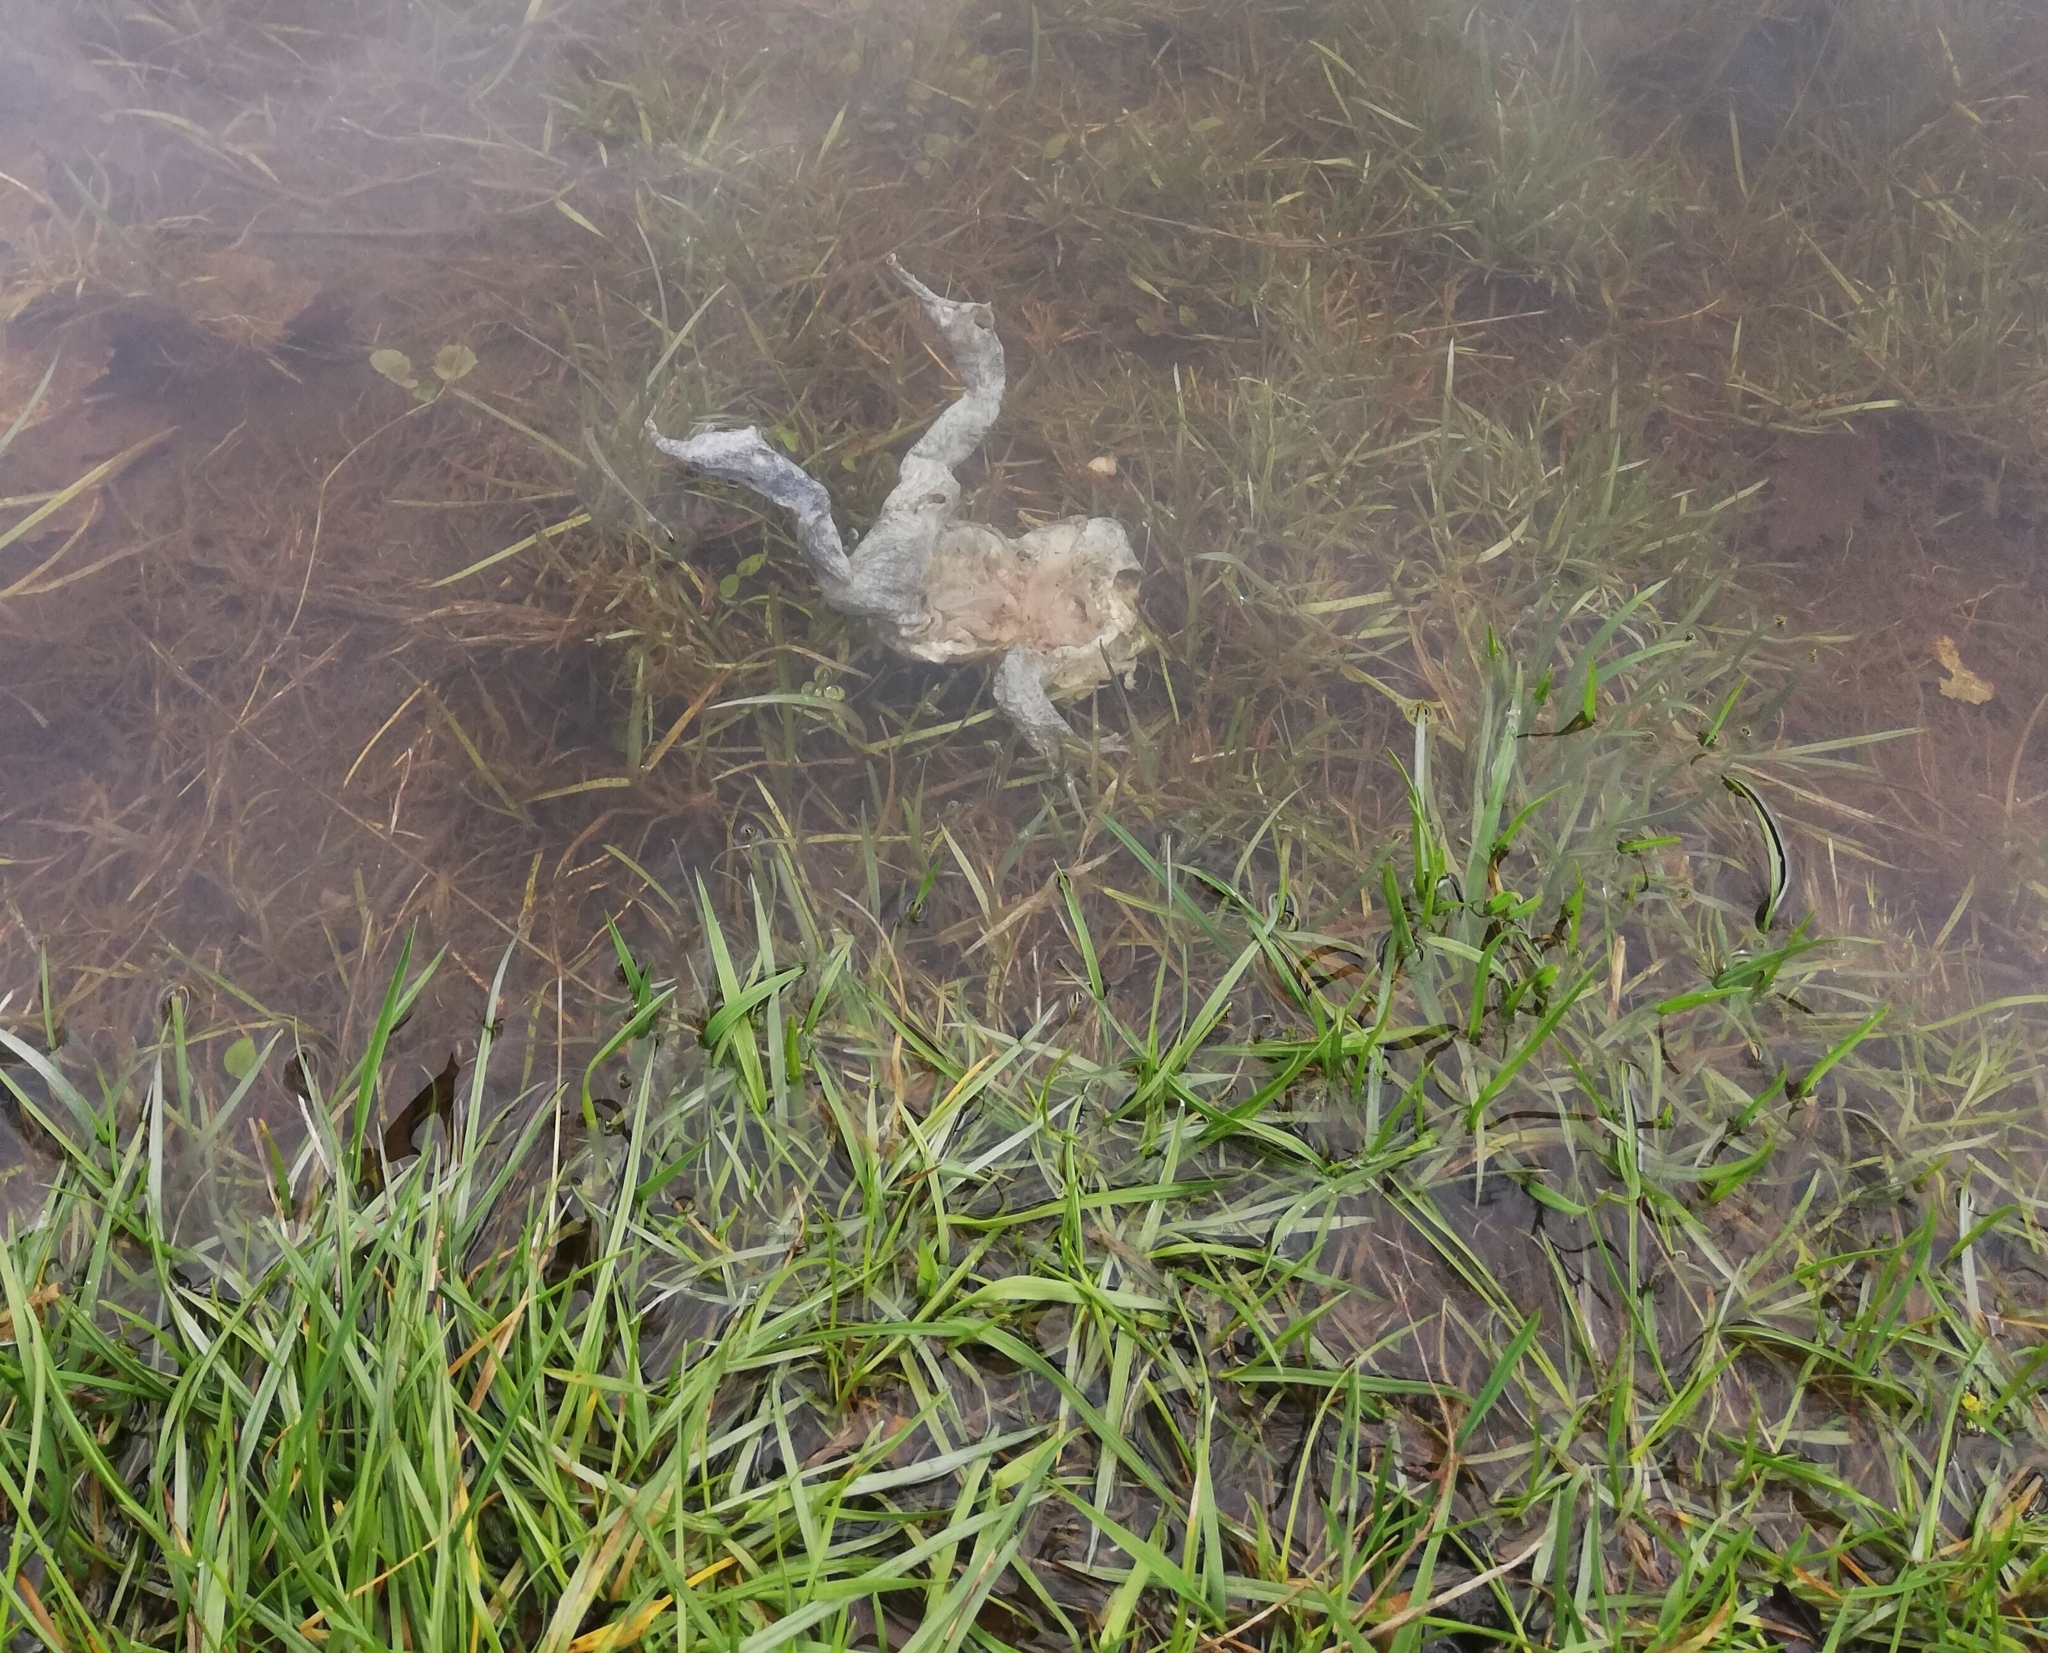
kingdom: Animalia
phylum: Chordata
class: Amphibia
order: Anura
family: Bufonidae
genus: Bufo
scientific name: Bufo bufo
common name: Common toad
